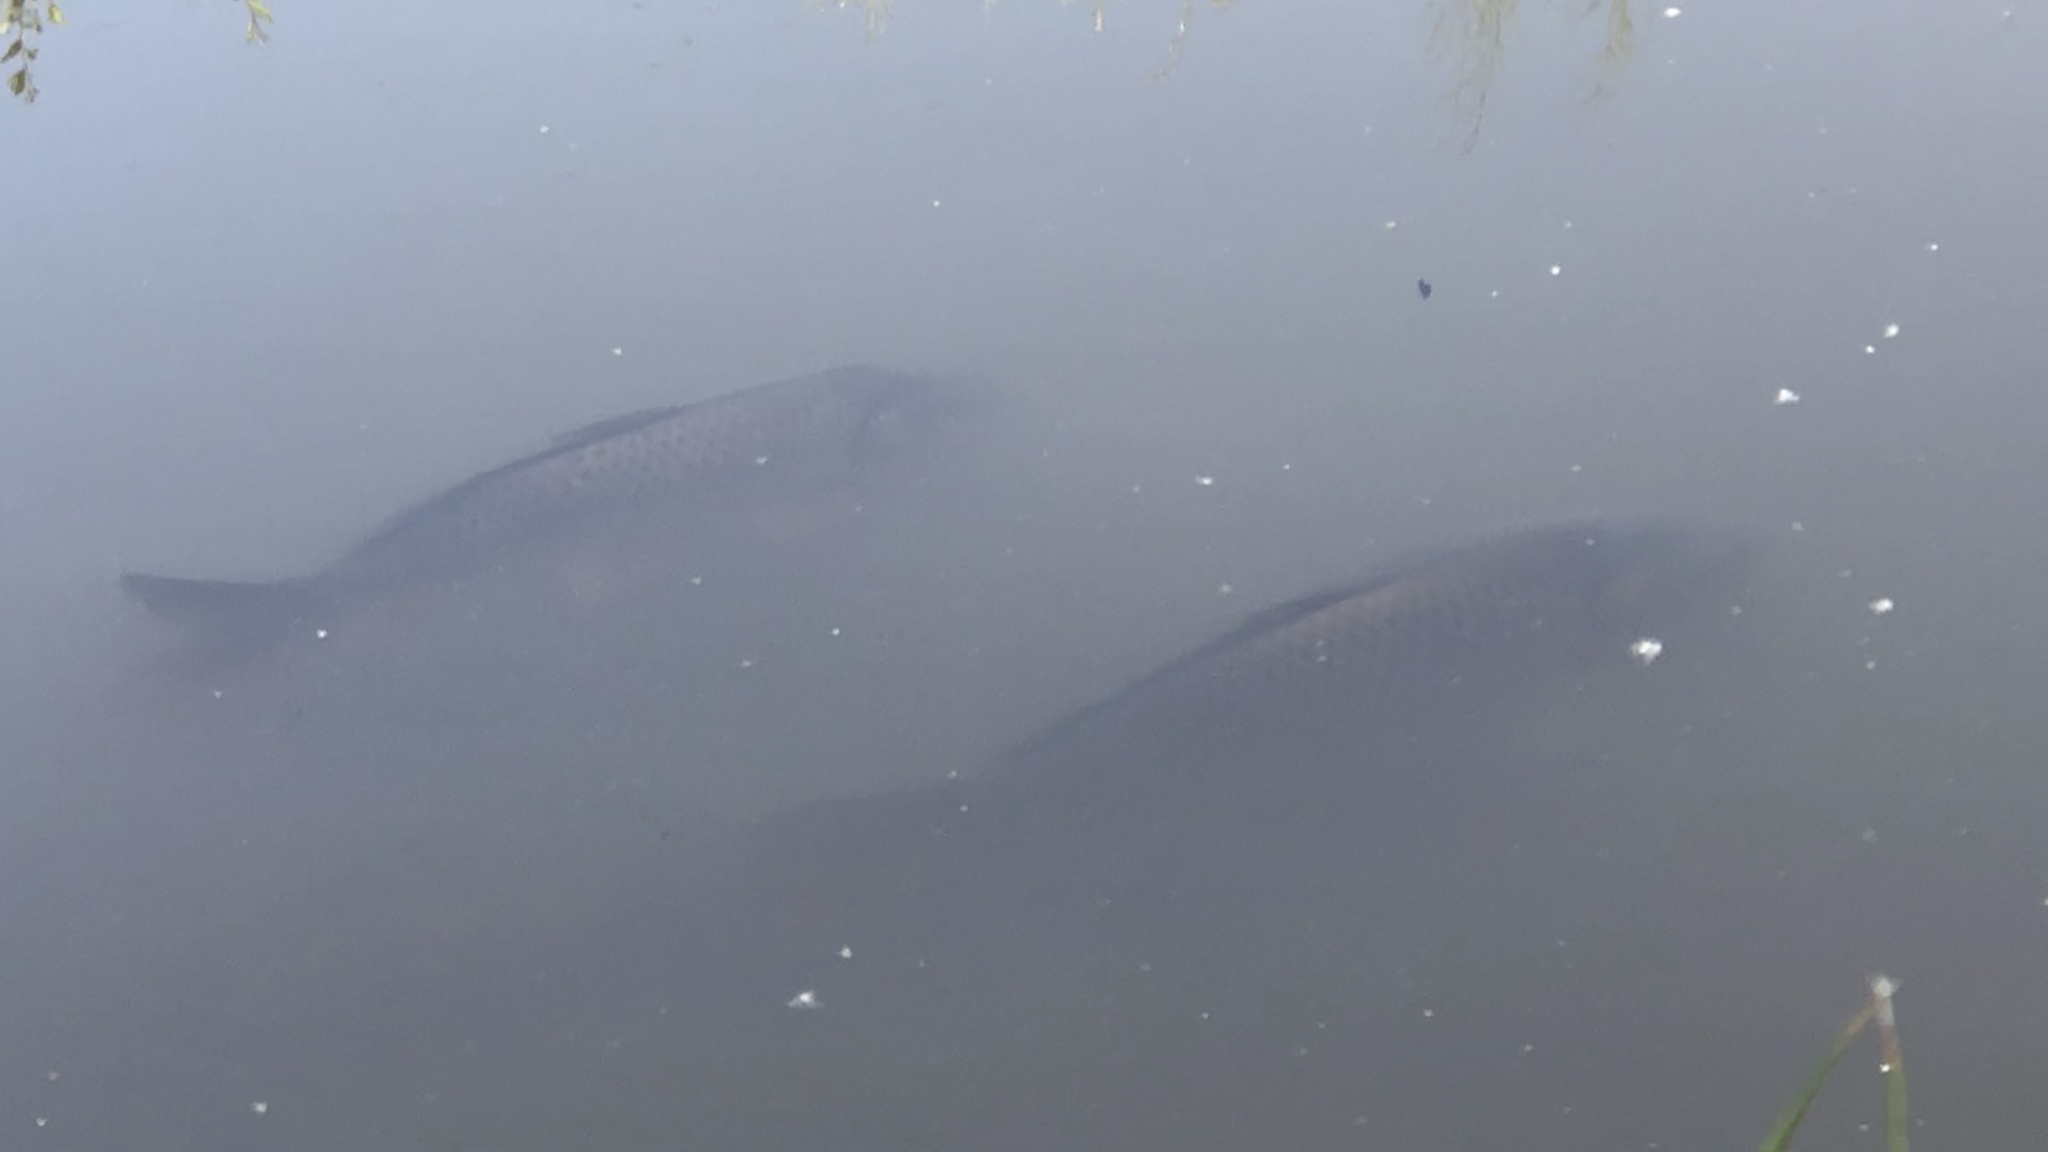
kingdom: Animalia
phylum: Chordata
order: Cypriniformes
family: Cyprinidae
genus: Cyprinus
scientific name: Cyprinus carpio
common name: Common carp
